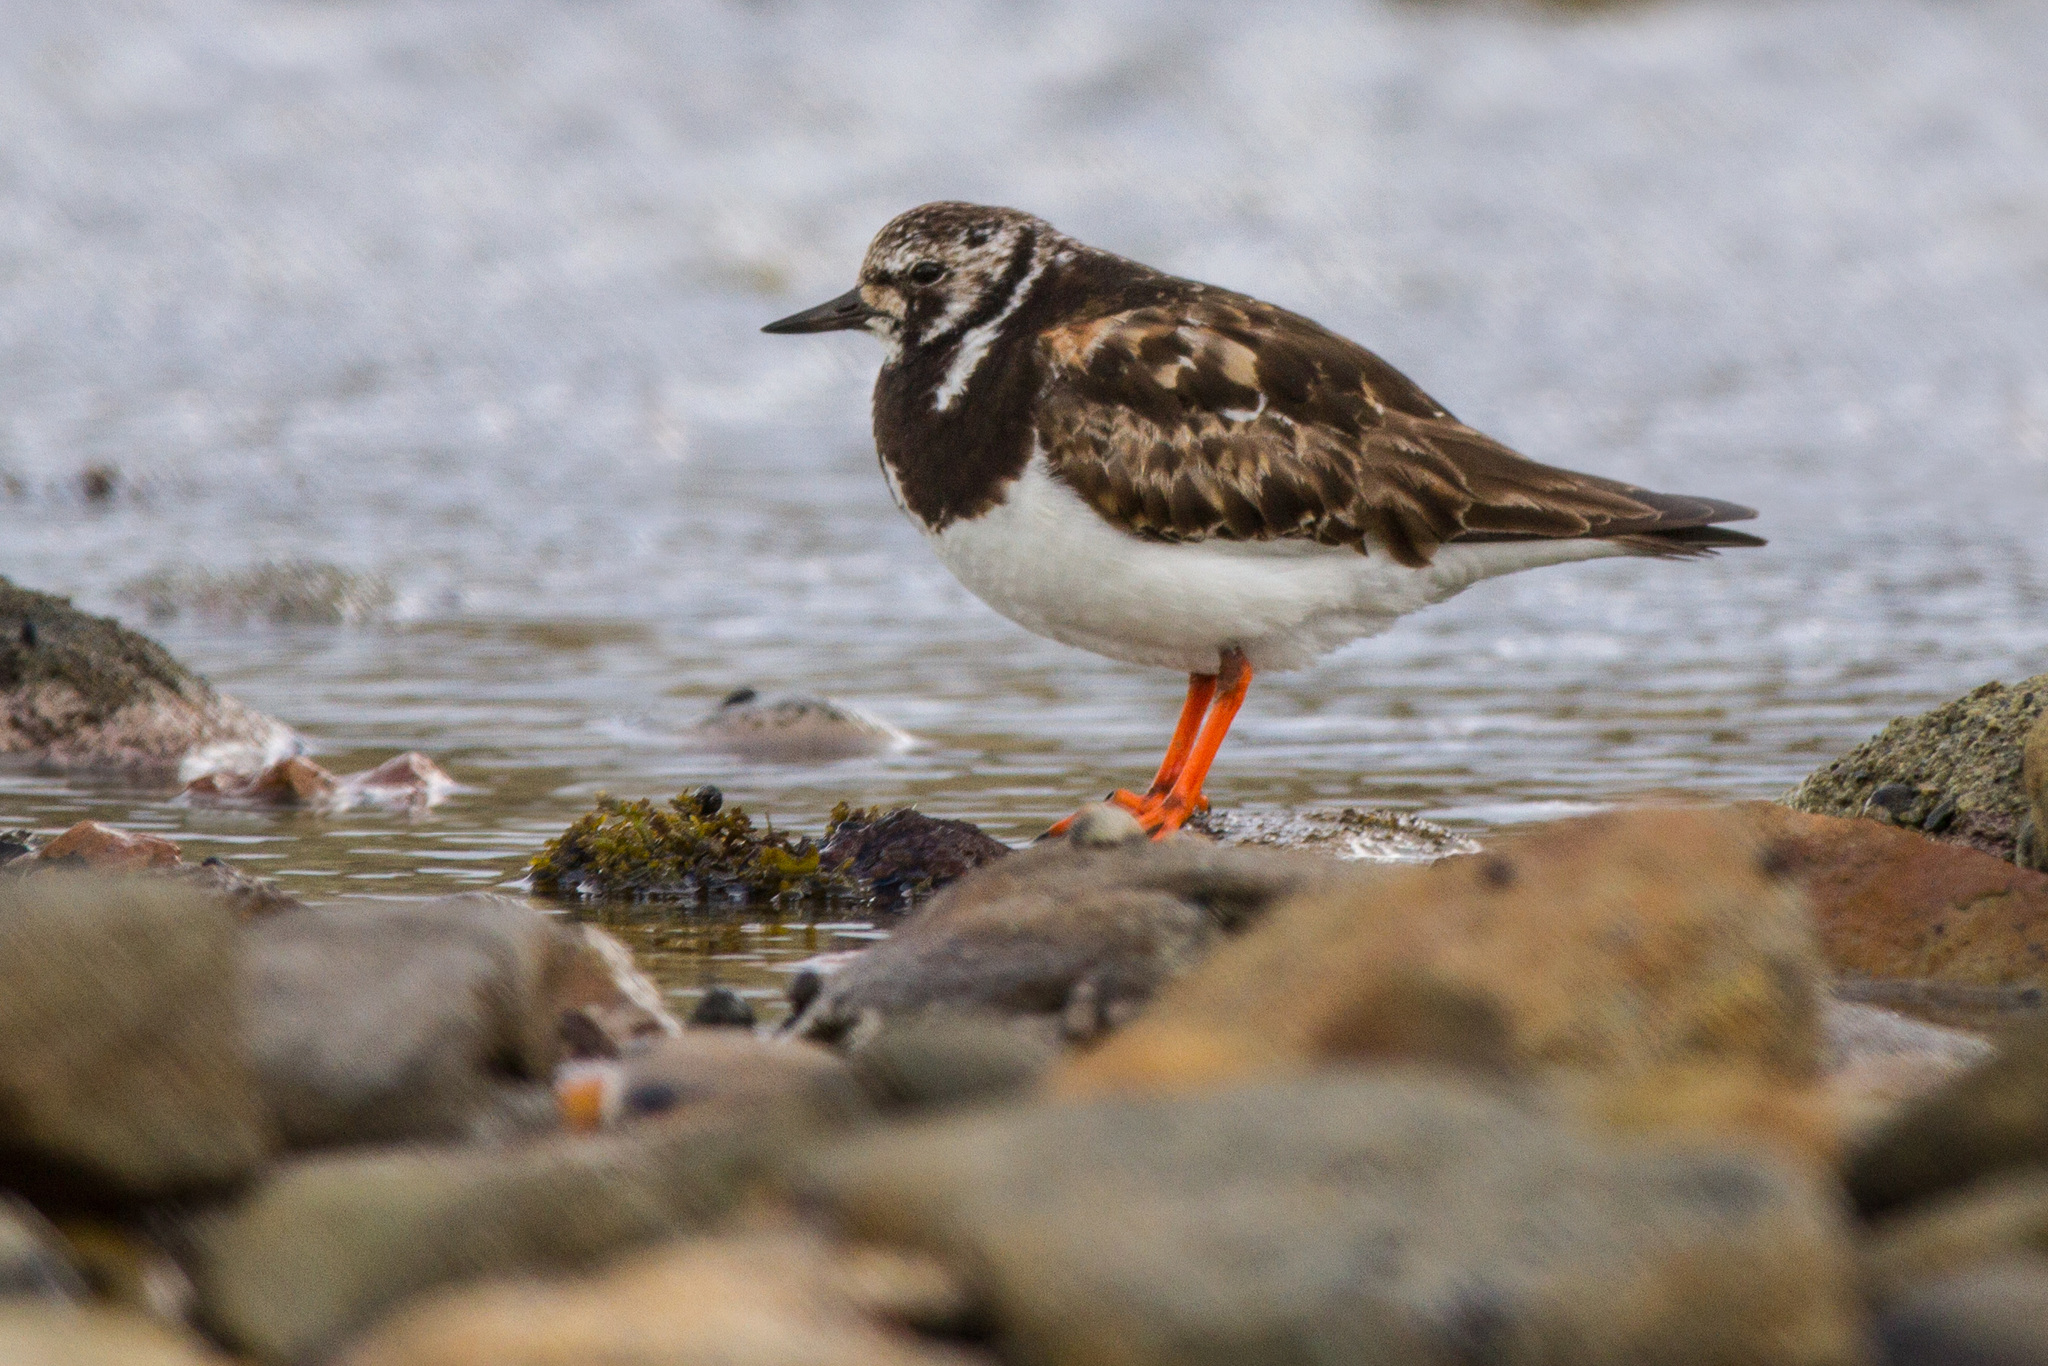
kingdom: Animalia
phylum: Chordata
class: Aves
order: Charadriiformes
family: Scolopacidae
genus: Arenaria
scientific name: Arenaria interpres
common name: Ruddy turnstone
